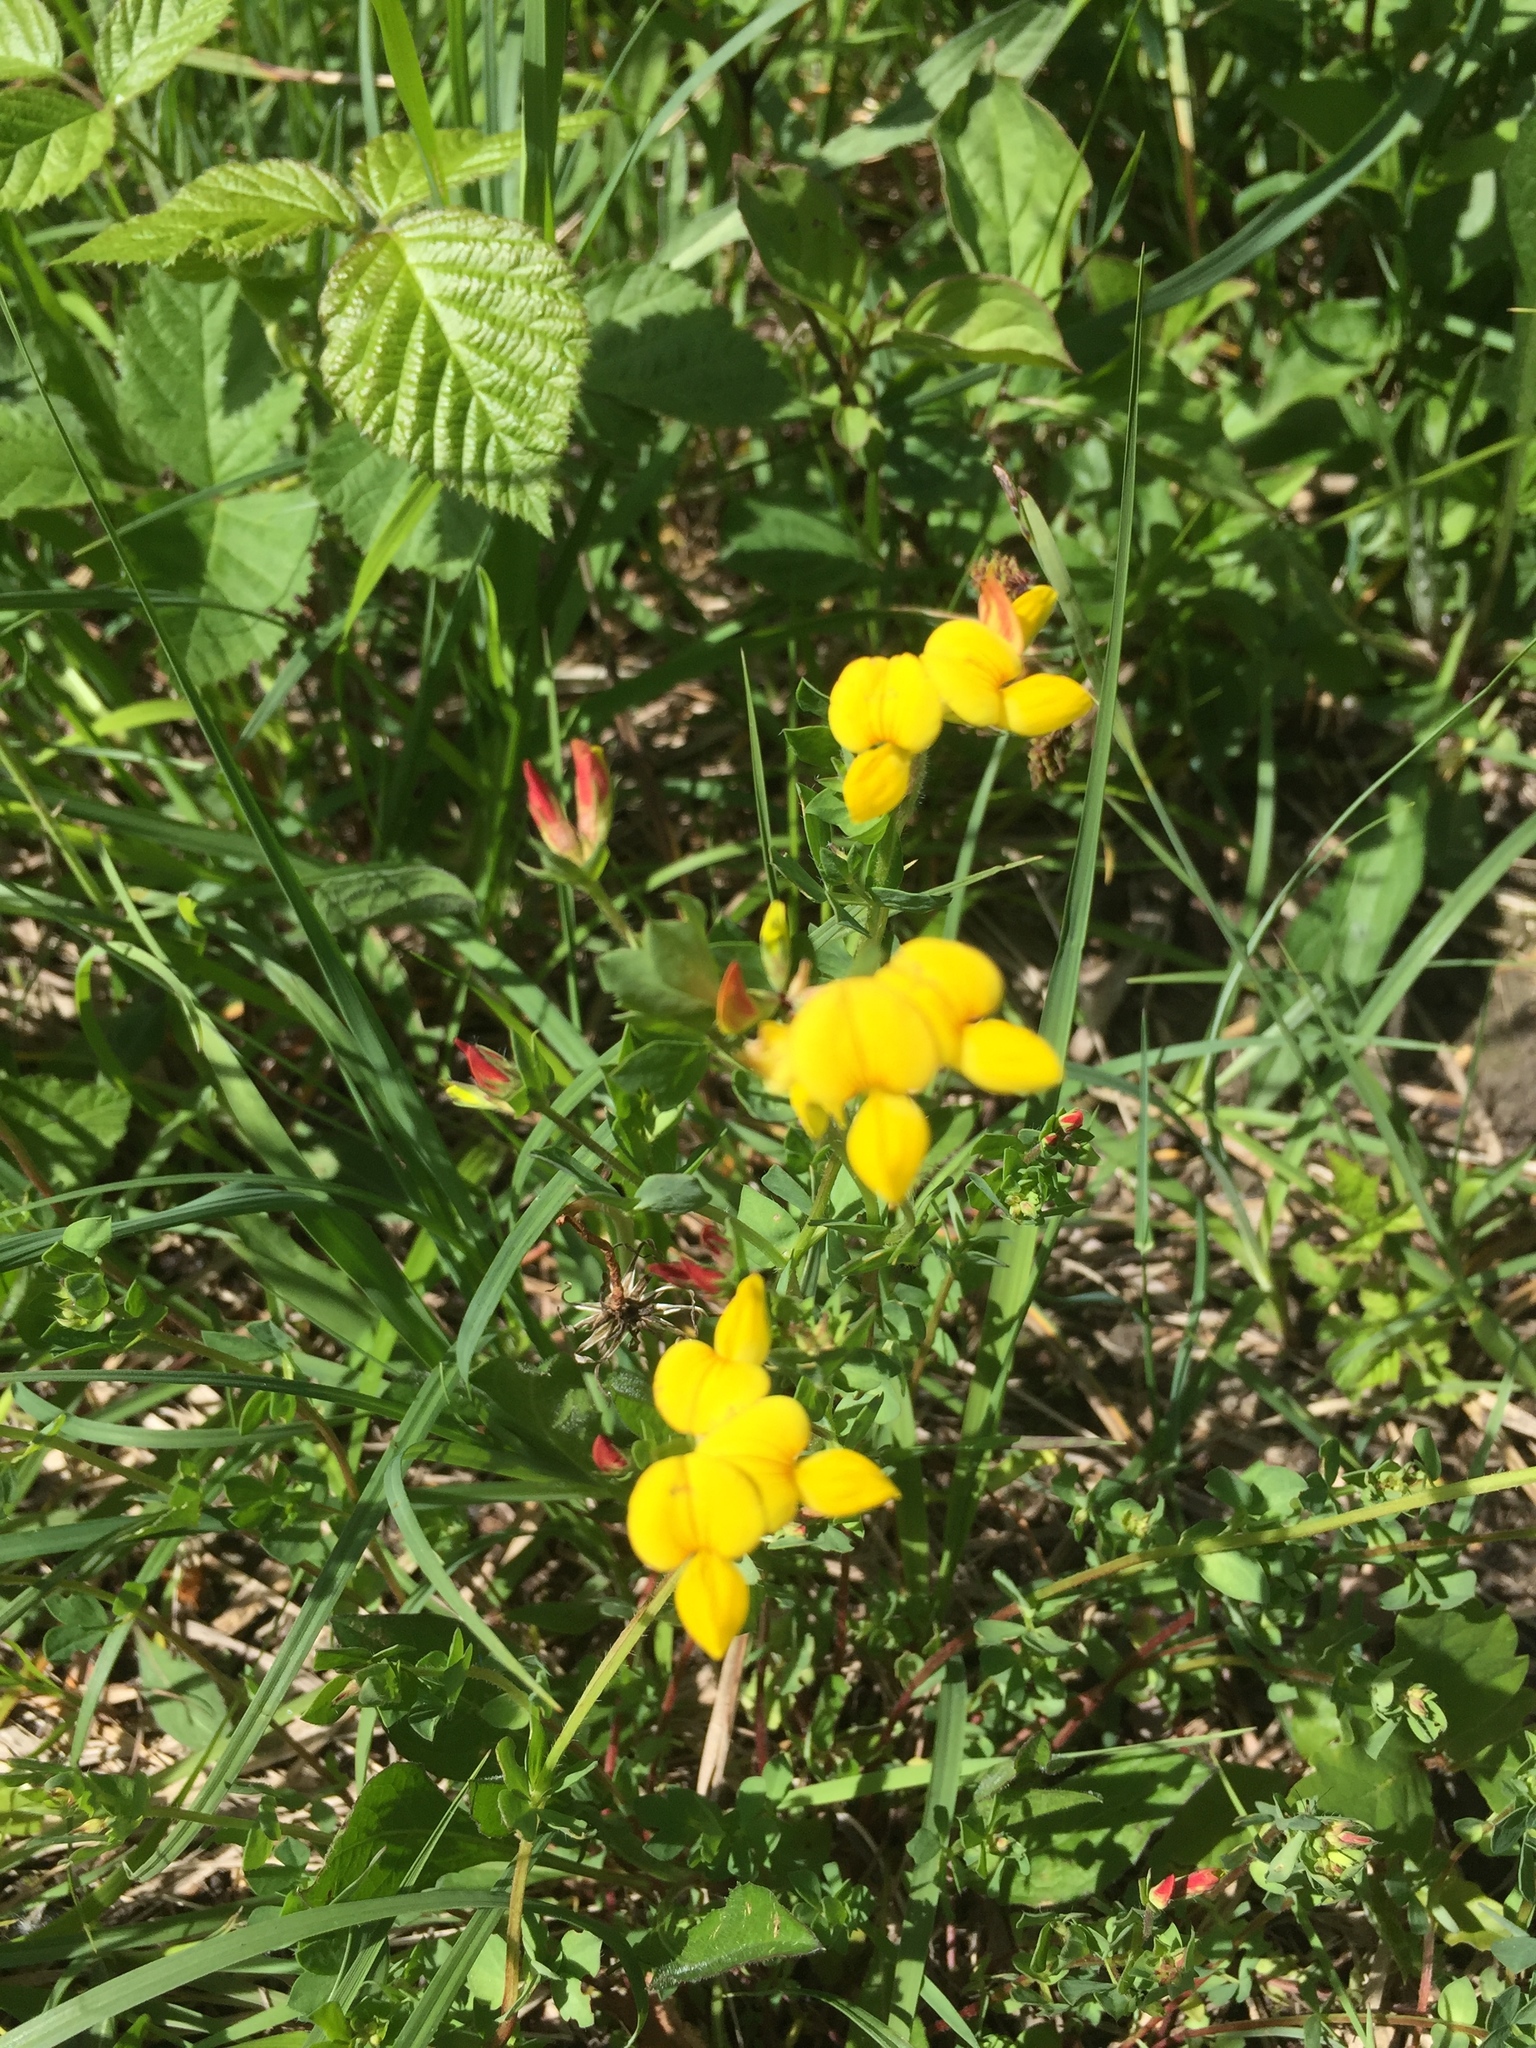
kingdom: Plantae
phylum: Tracheophyta
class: Magnoliopsida
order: Fabales
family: Fabaceae
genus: Lotus
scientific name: Lotus corniculatus
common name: Common bird's-foot-trefoil
